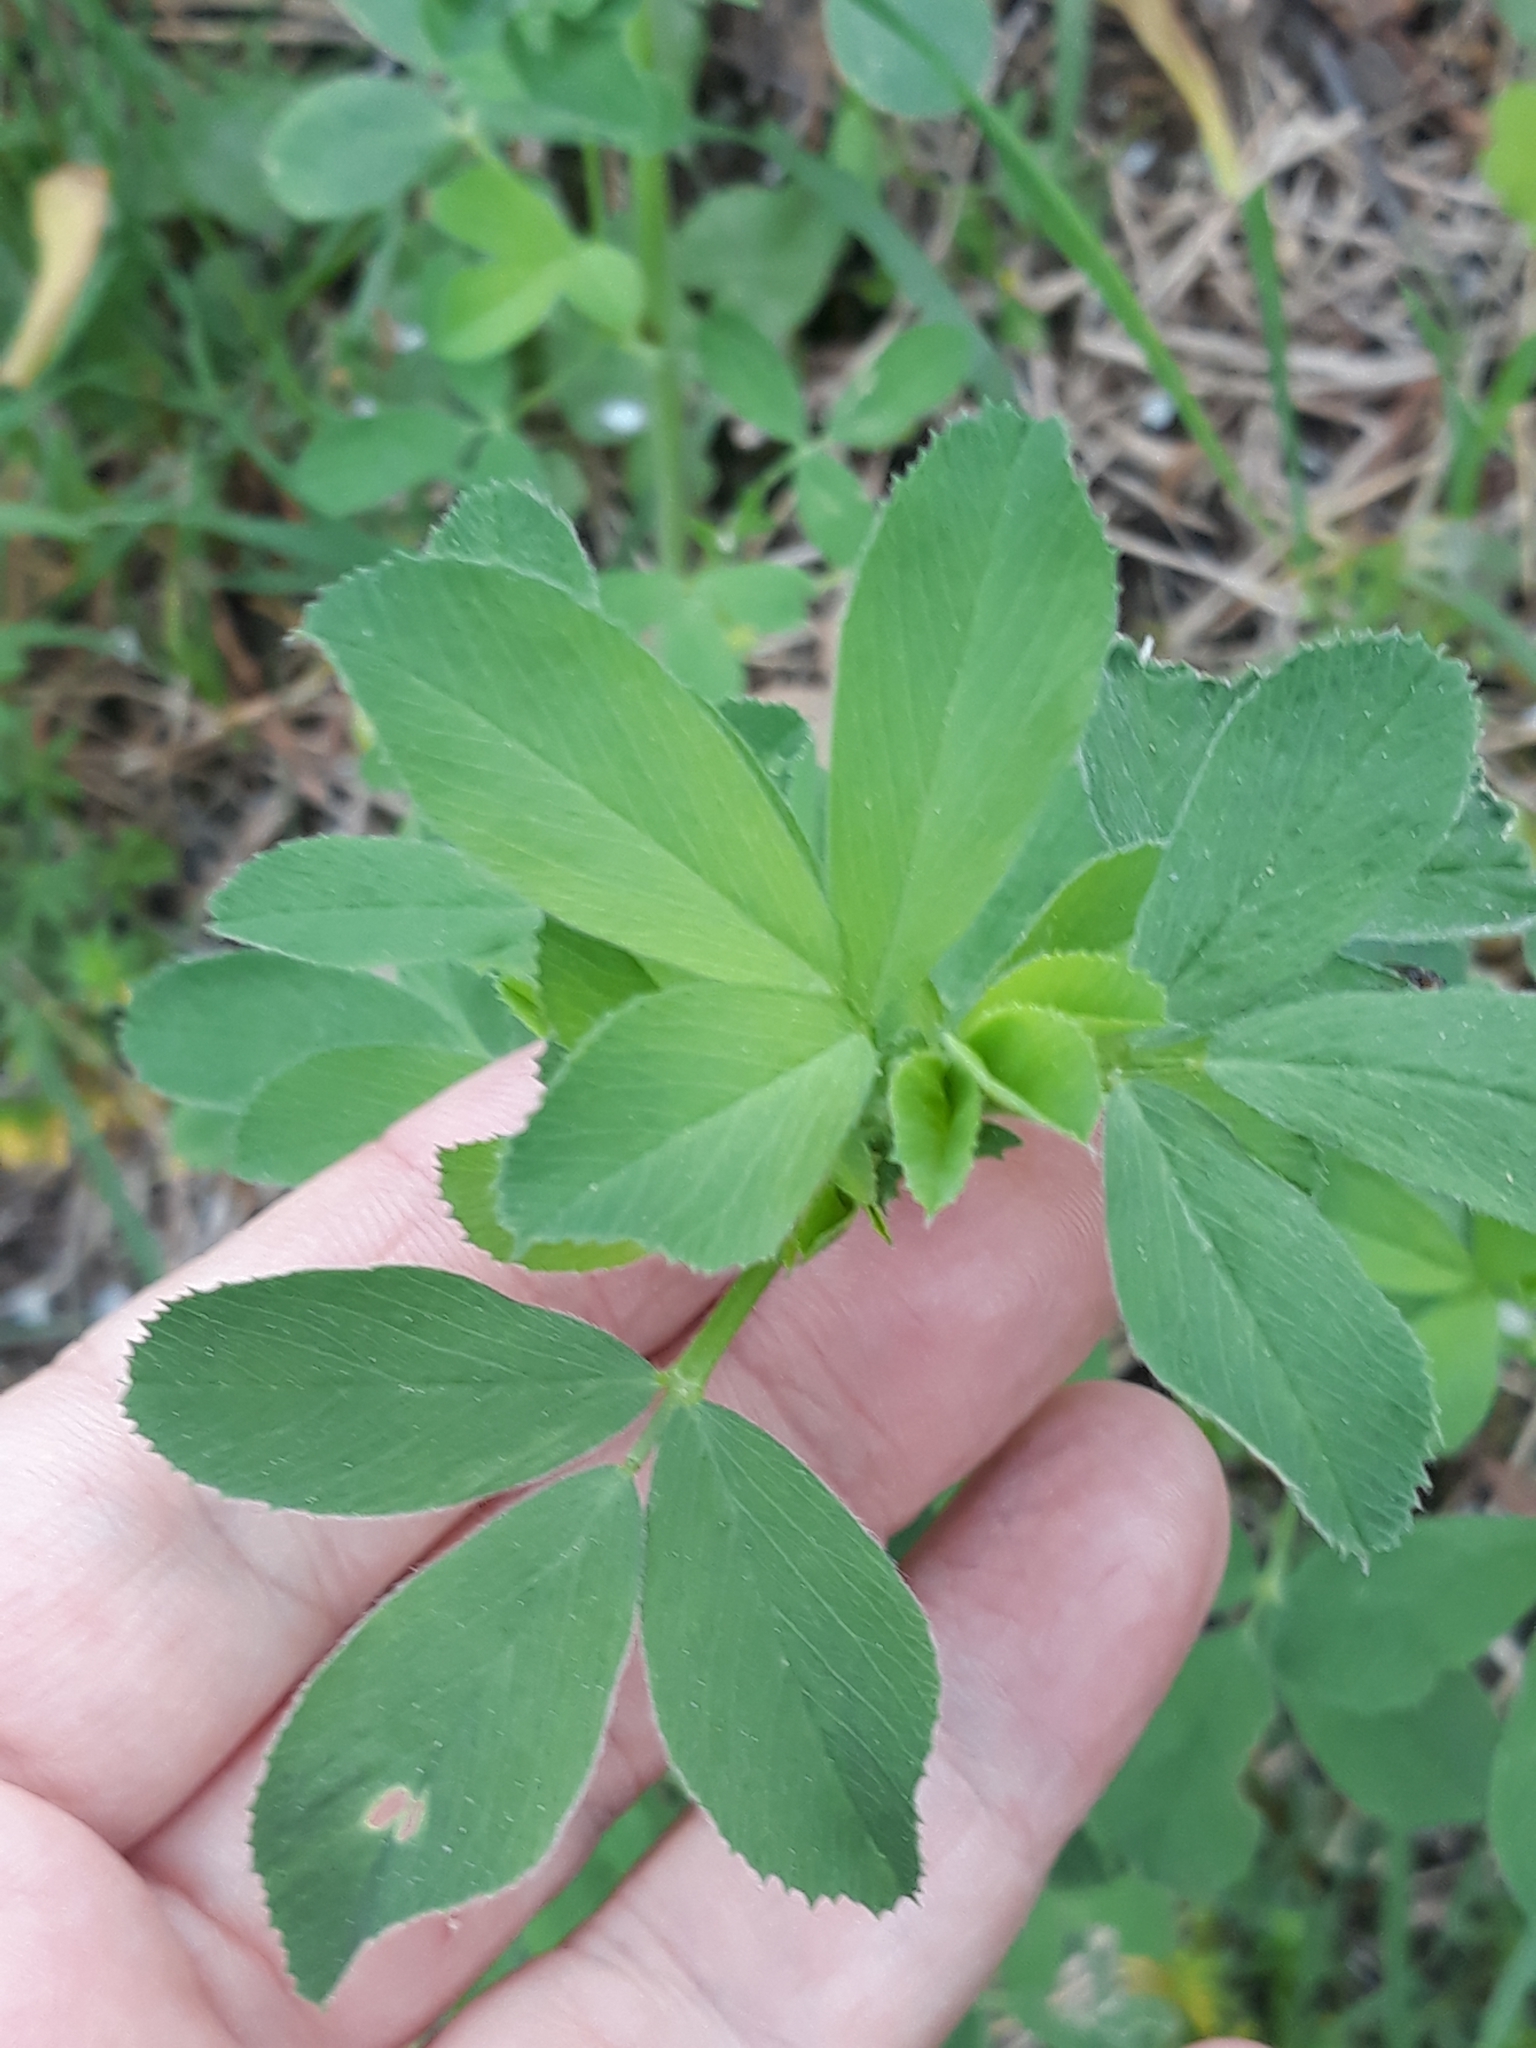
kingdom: Plantae
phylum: Tracheophyta
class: Magnoliopsida
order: Fabales
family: Fabaceae
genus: Medicago
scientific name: Medicago sativa
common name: Alfalfa
